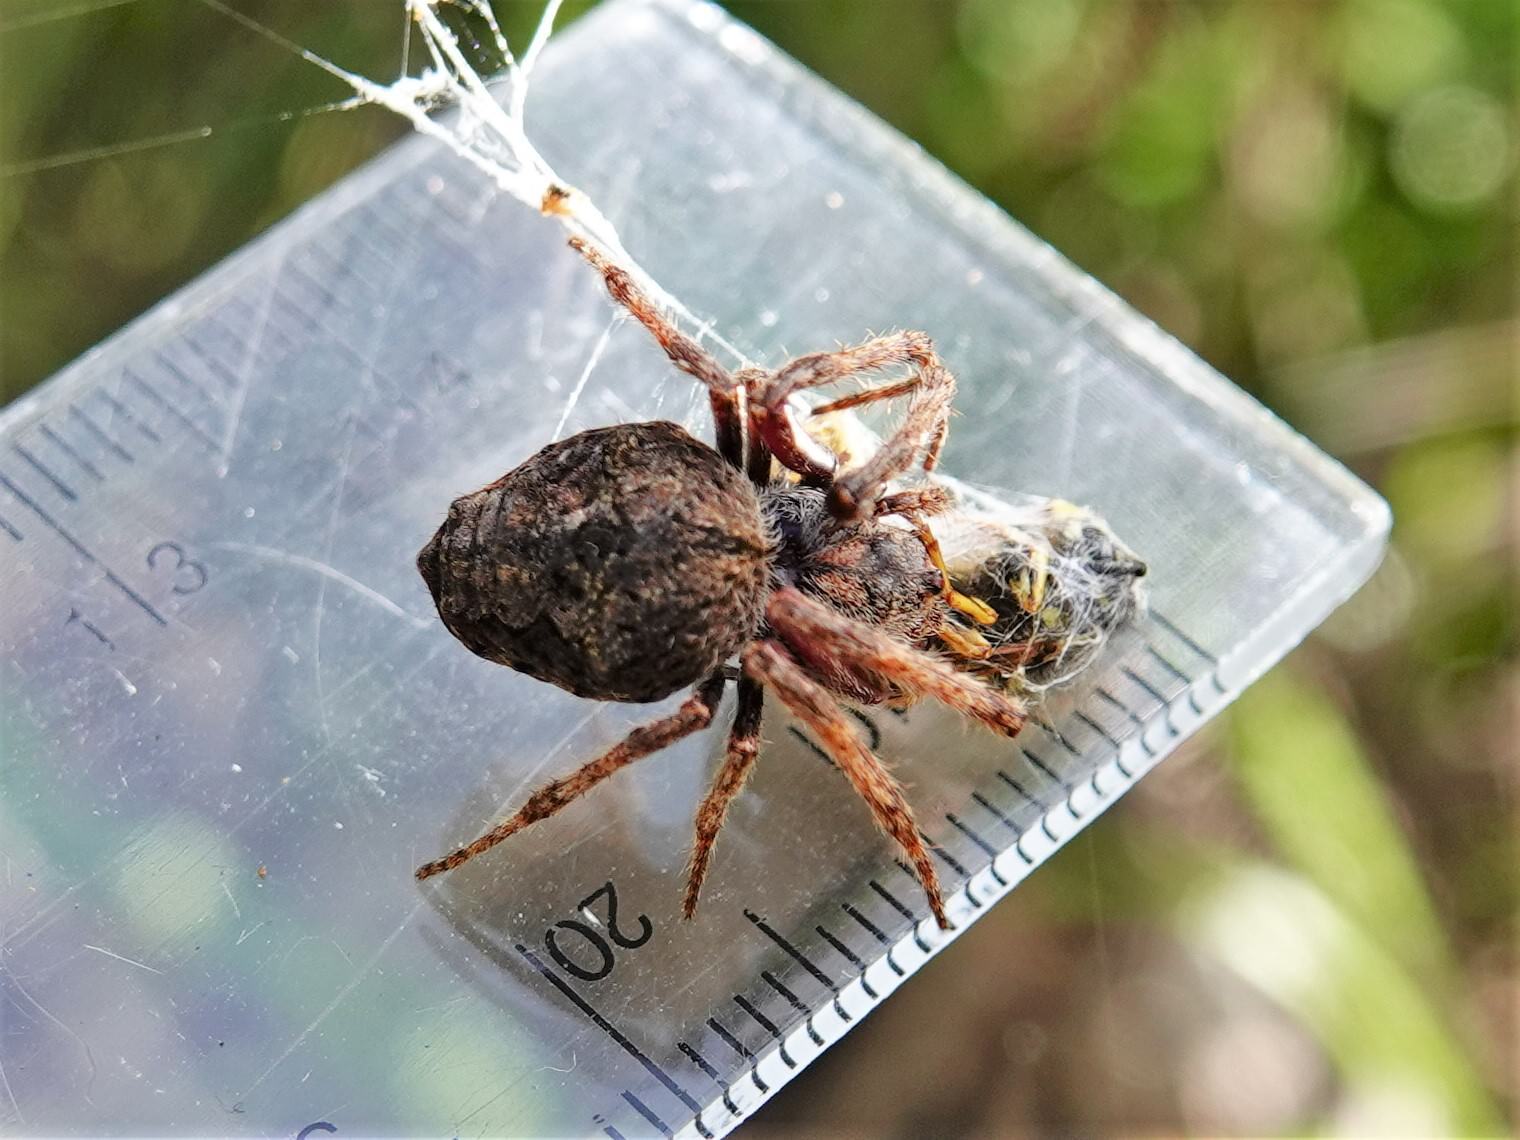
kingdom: Animalia
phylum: Arthropoda
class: Arachnida
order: Araneae
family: Araneidae
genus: Eriophora
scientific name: Eriophora pustulosa
